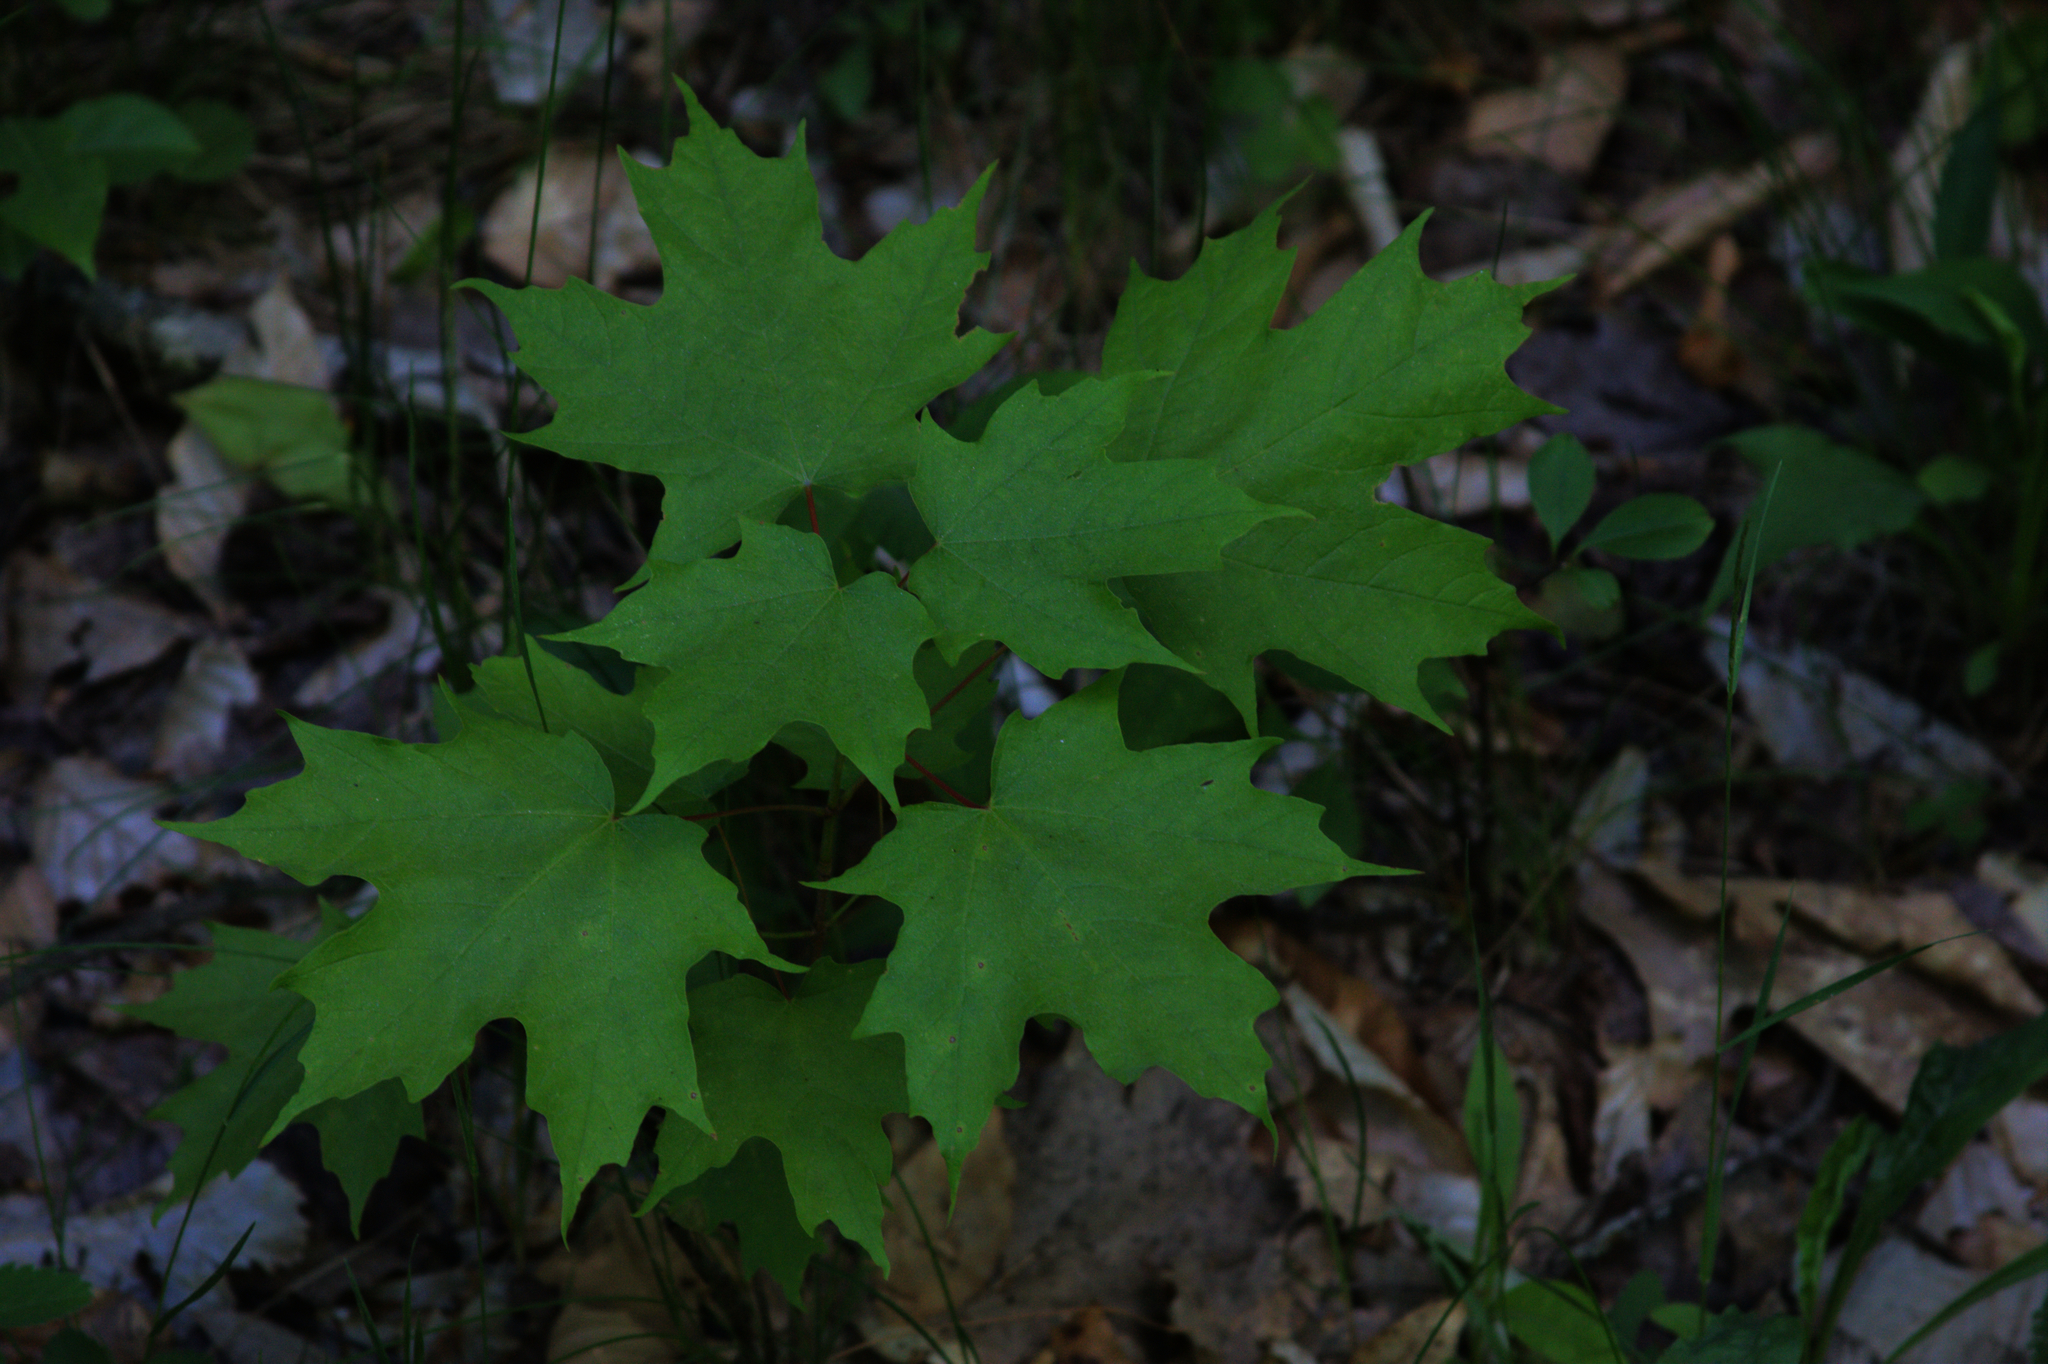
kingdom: Plantae
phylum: Tracheophyta
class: Magnoliopsida
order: Sapindales
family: Sapindaceae
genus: Acer
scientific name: Acer saccharum
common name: Sugar maple
